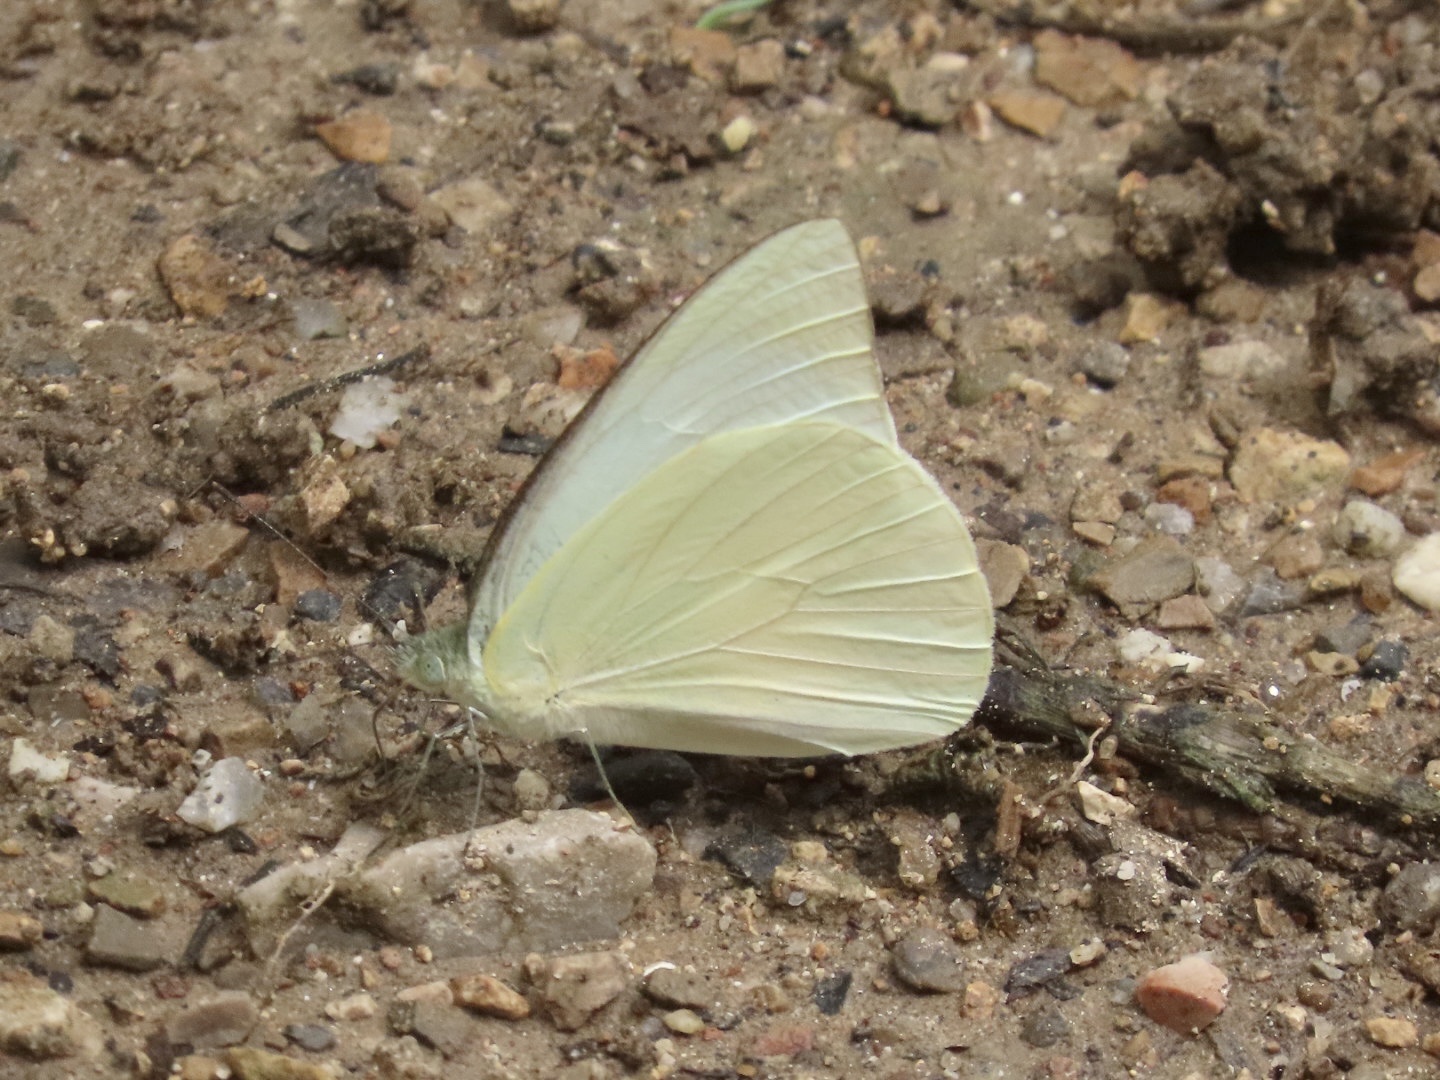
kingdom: Animalia
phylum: Arthropoda
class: Insecta
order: Lepidoptera
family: Pieridae
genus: Appias
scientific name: Appias albina
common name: Common albatross
